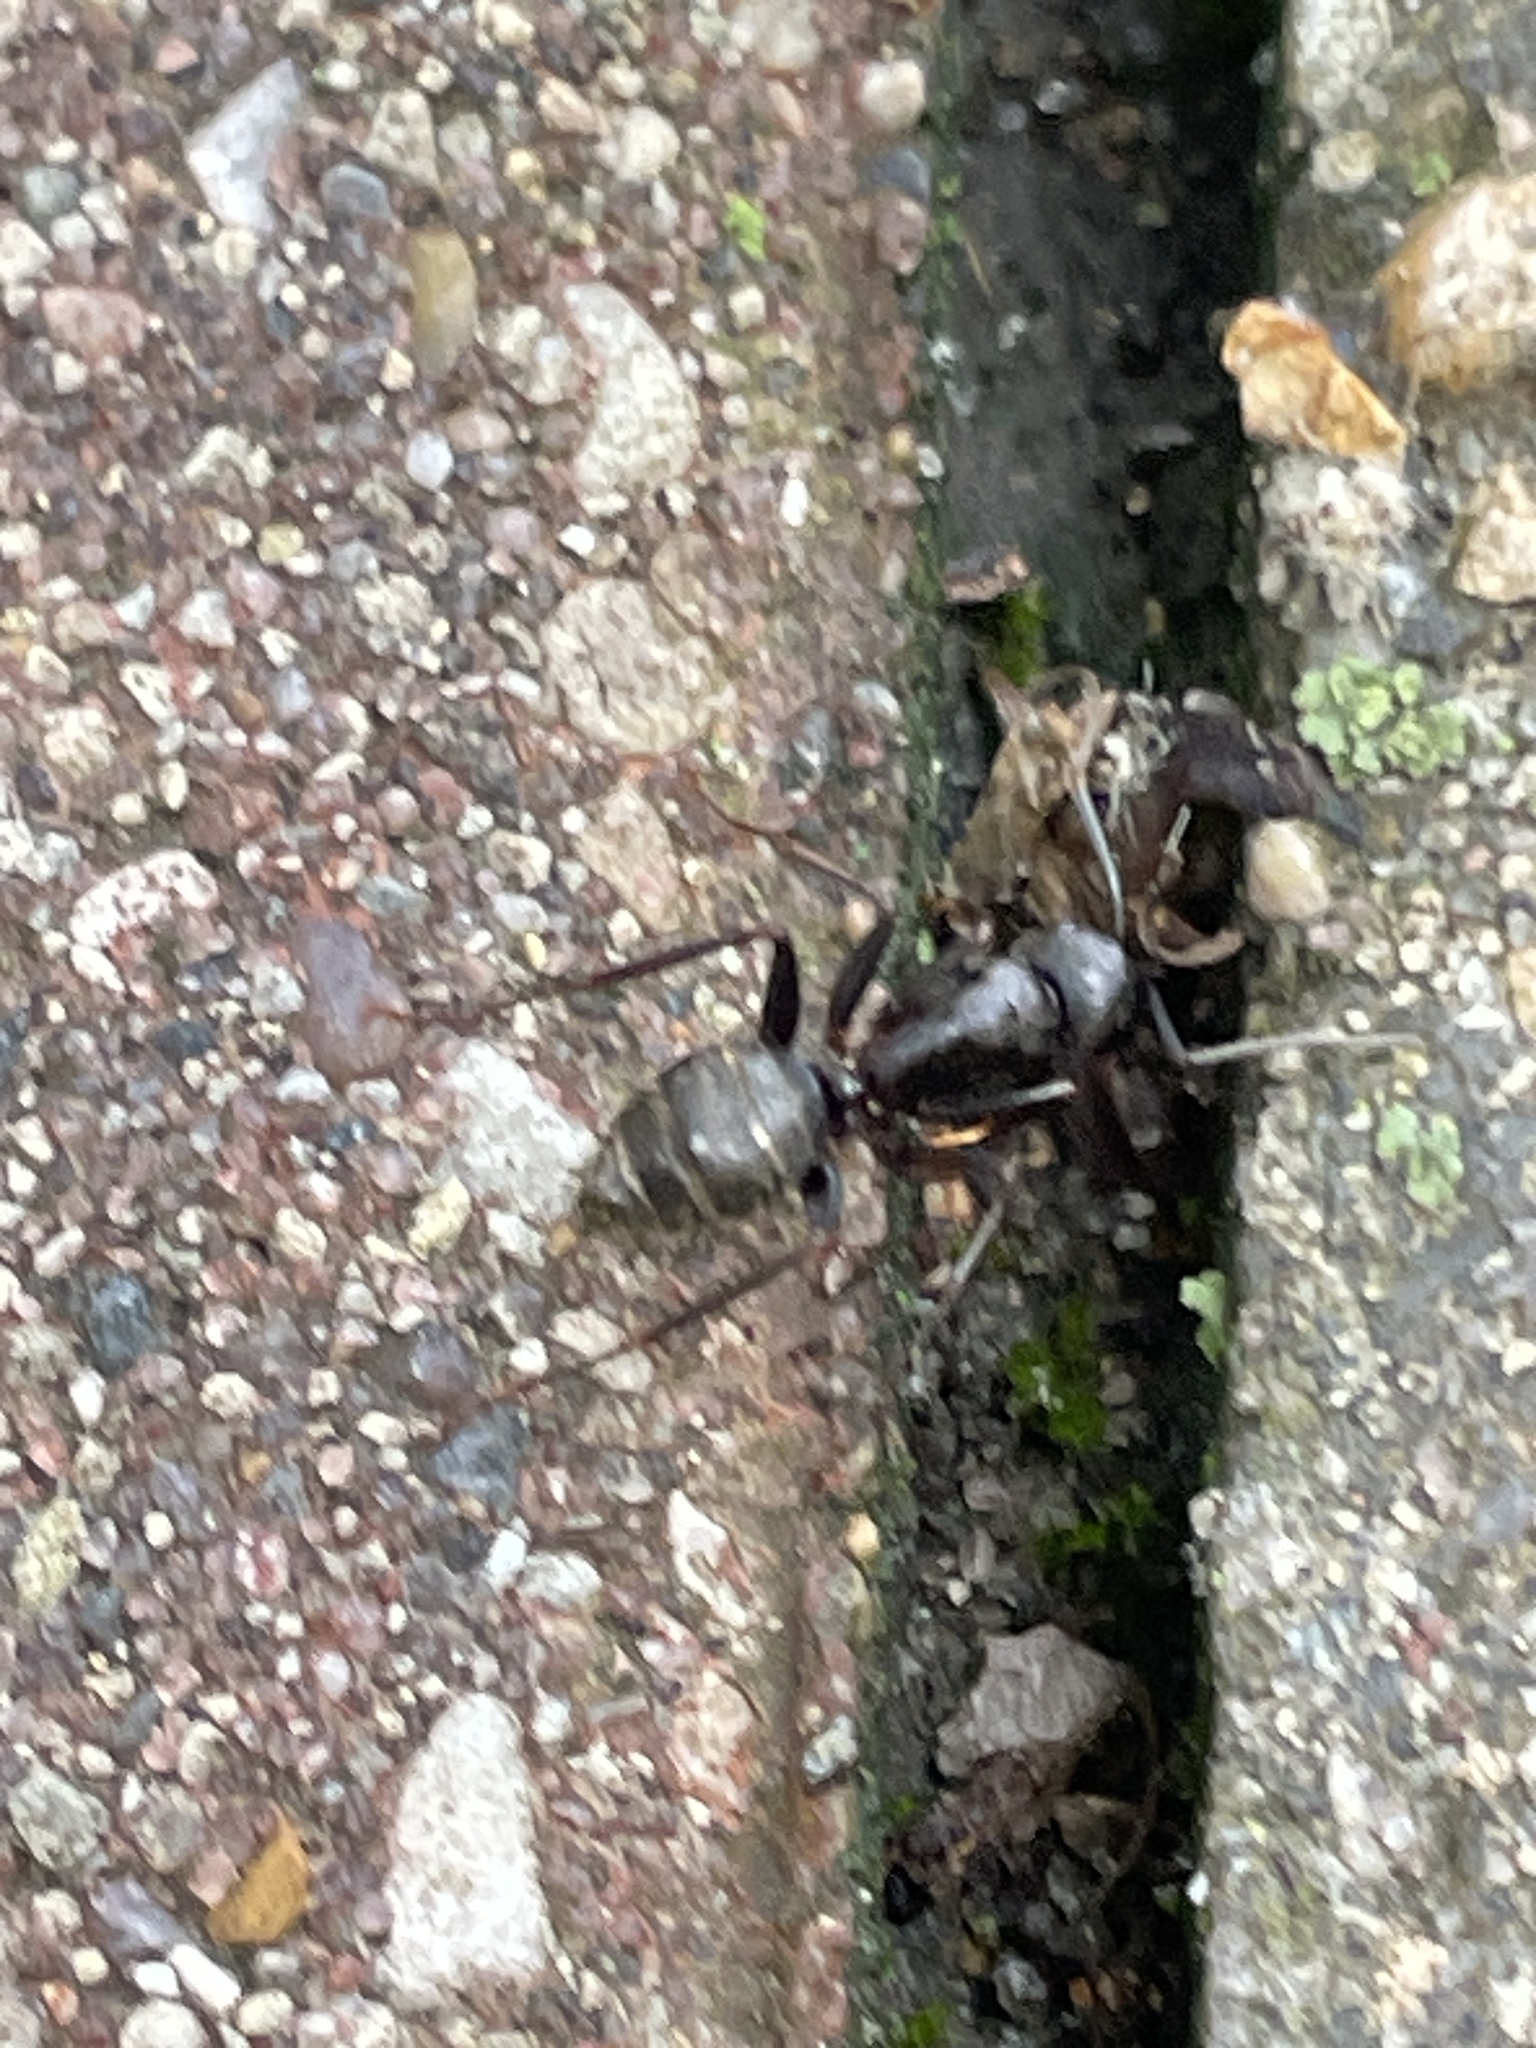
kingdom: Animalia
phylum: Arthropoda
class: Insecta
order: Hymenoptera
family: Formicidae
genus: Camponotus
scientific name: Camponotus pennsylvanicus
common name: Black carpenter ant
